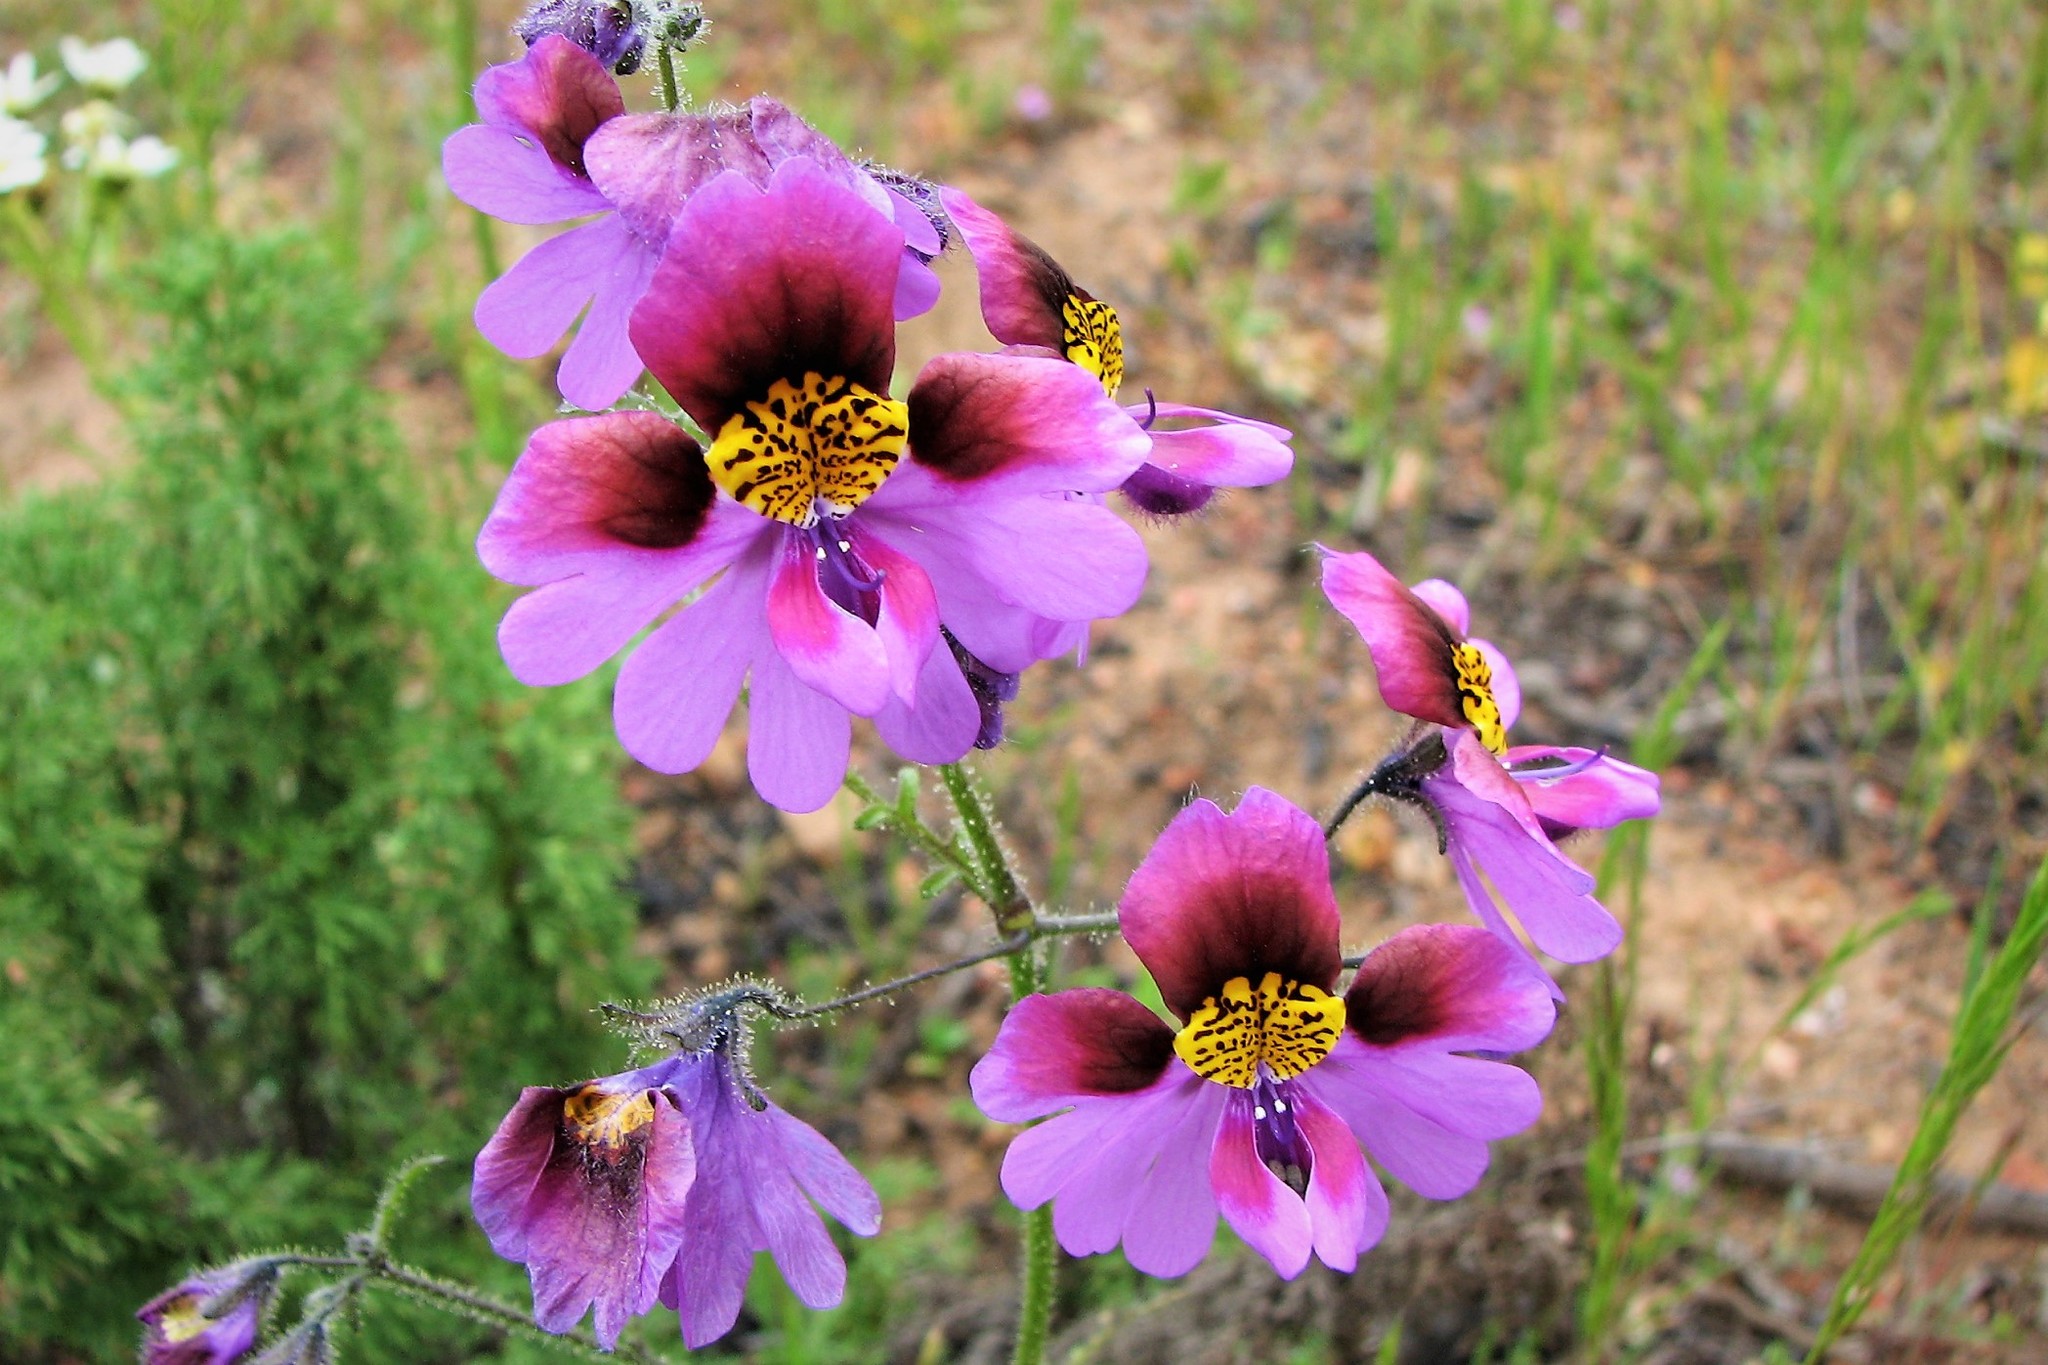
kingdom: Plantae
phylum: Tracheophyta
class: Magnoliopsida
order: Solanales
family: Solanaceae
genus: Schizanthus
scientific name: Schizanthus carlomunozii
